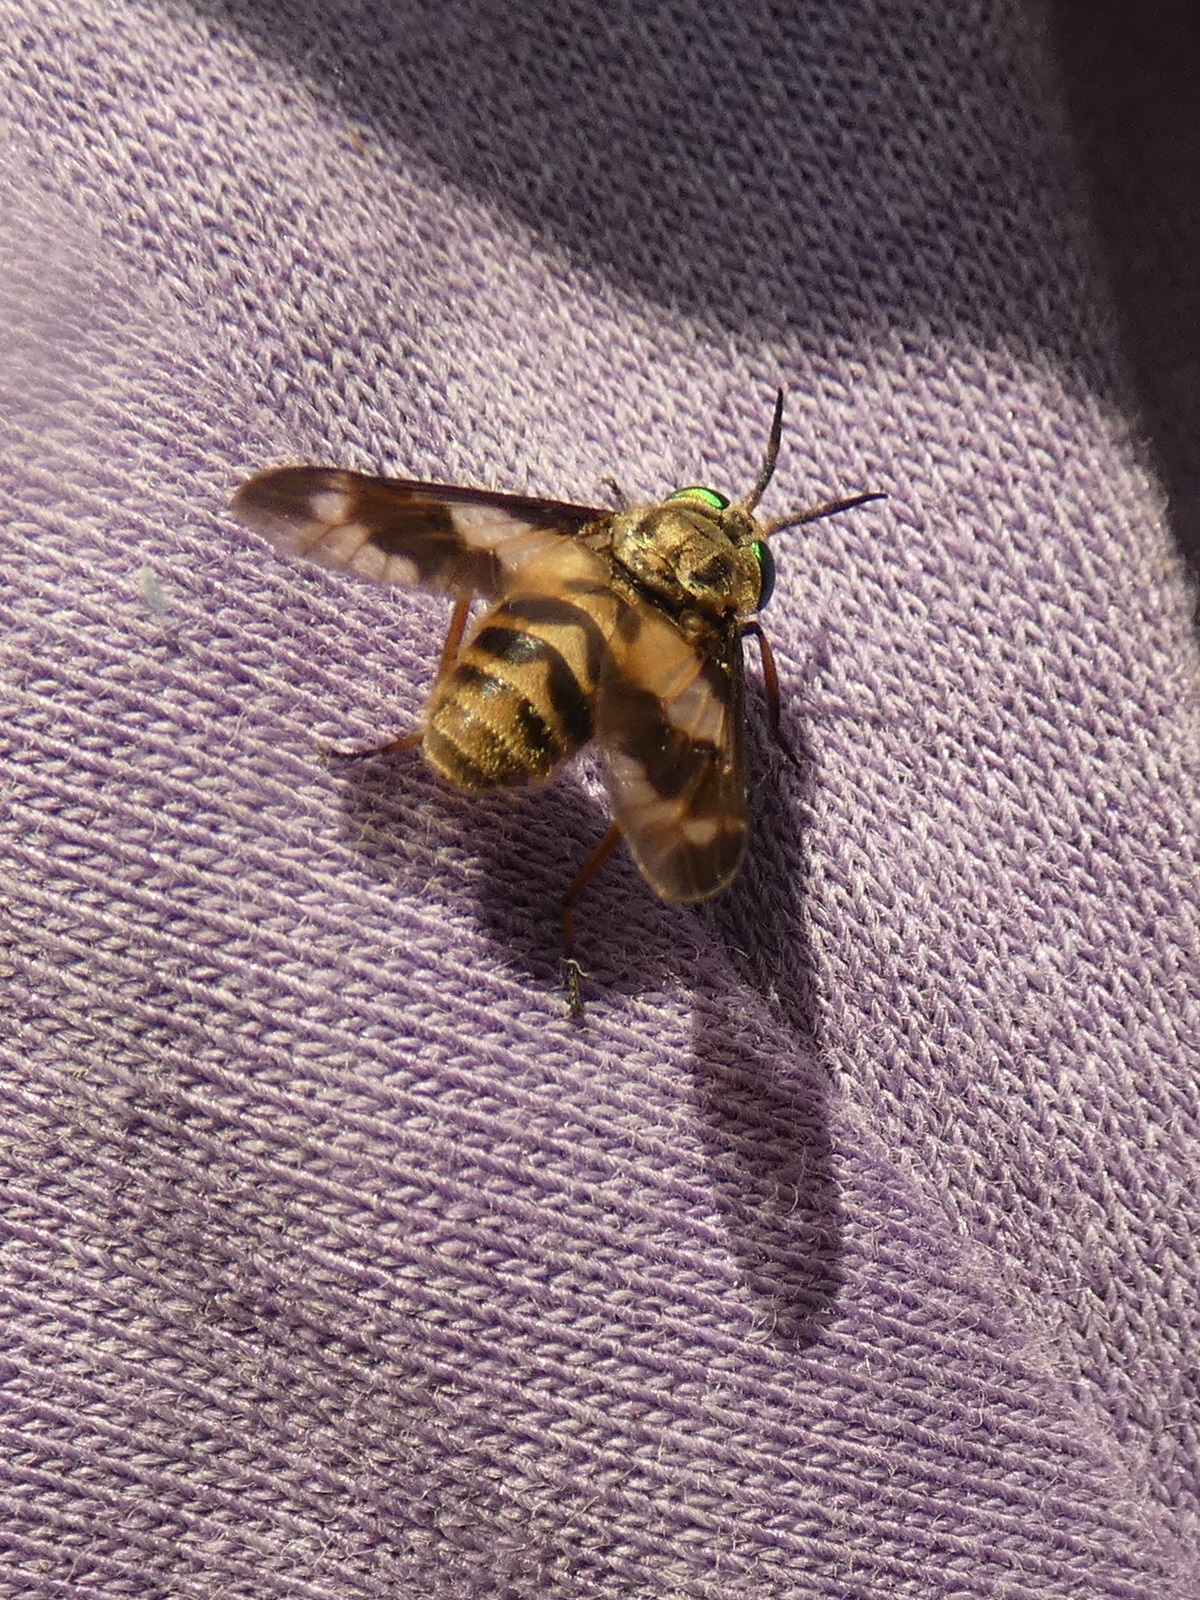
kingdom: Animalia
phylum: Arthropoda
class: Insecta
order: Diptera
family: Tabanidae
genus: Chrysops
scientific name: Chrysops relictus
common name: Twin-lobed deerfly
